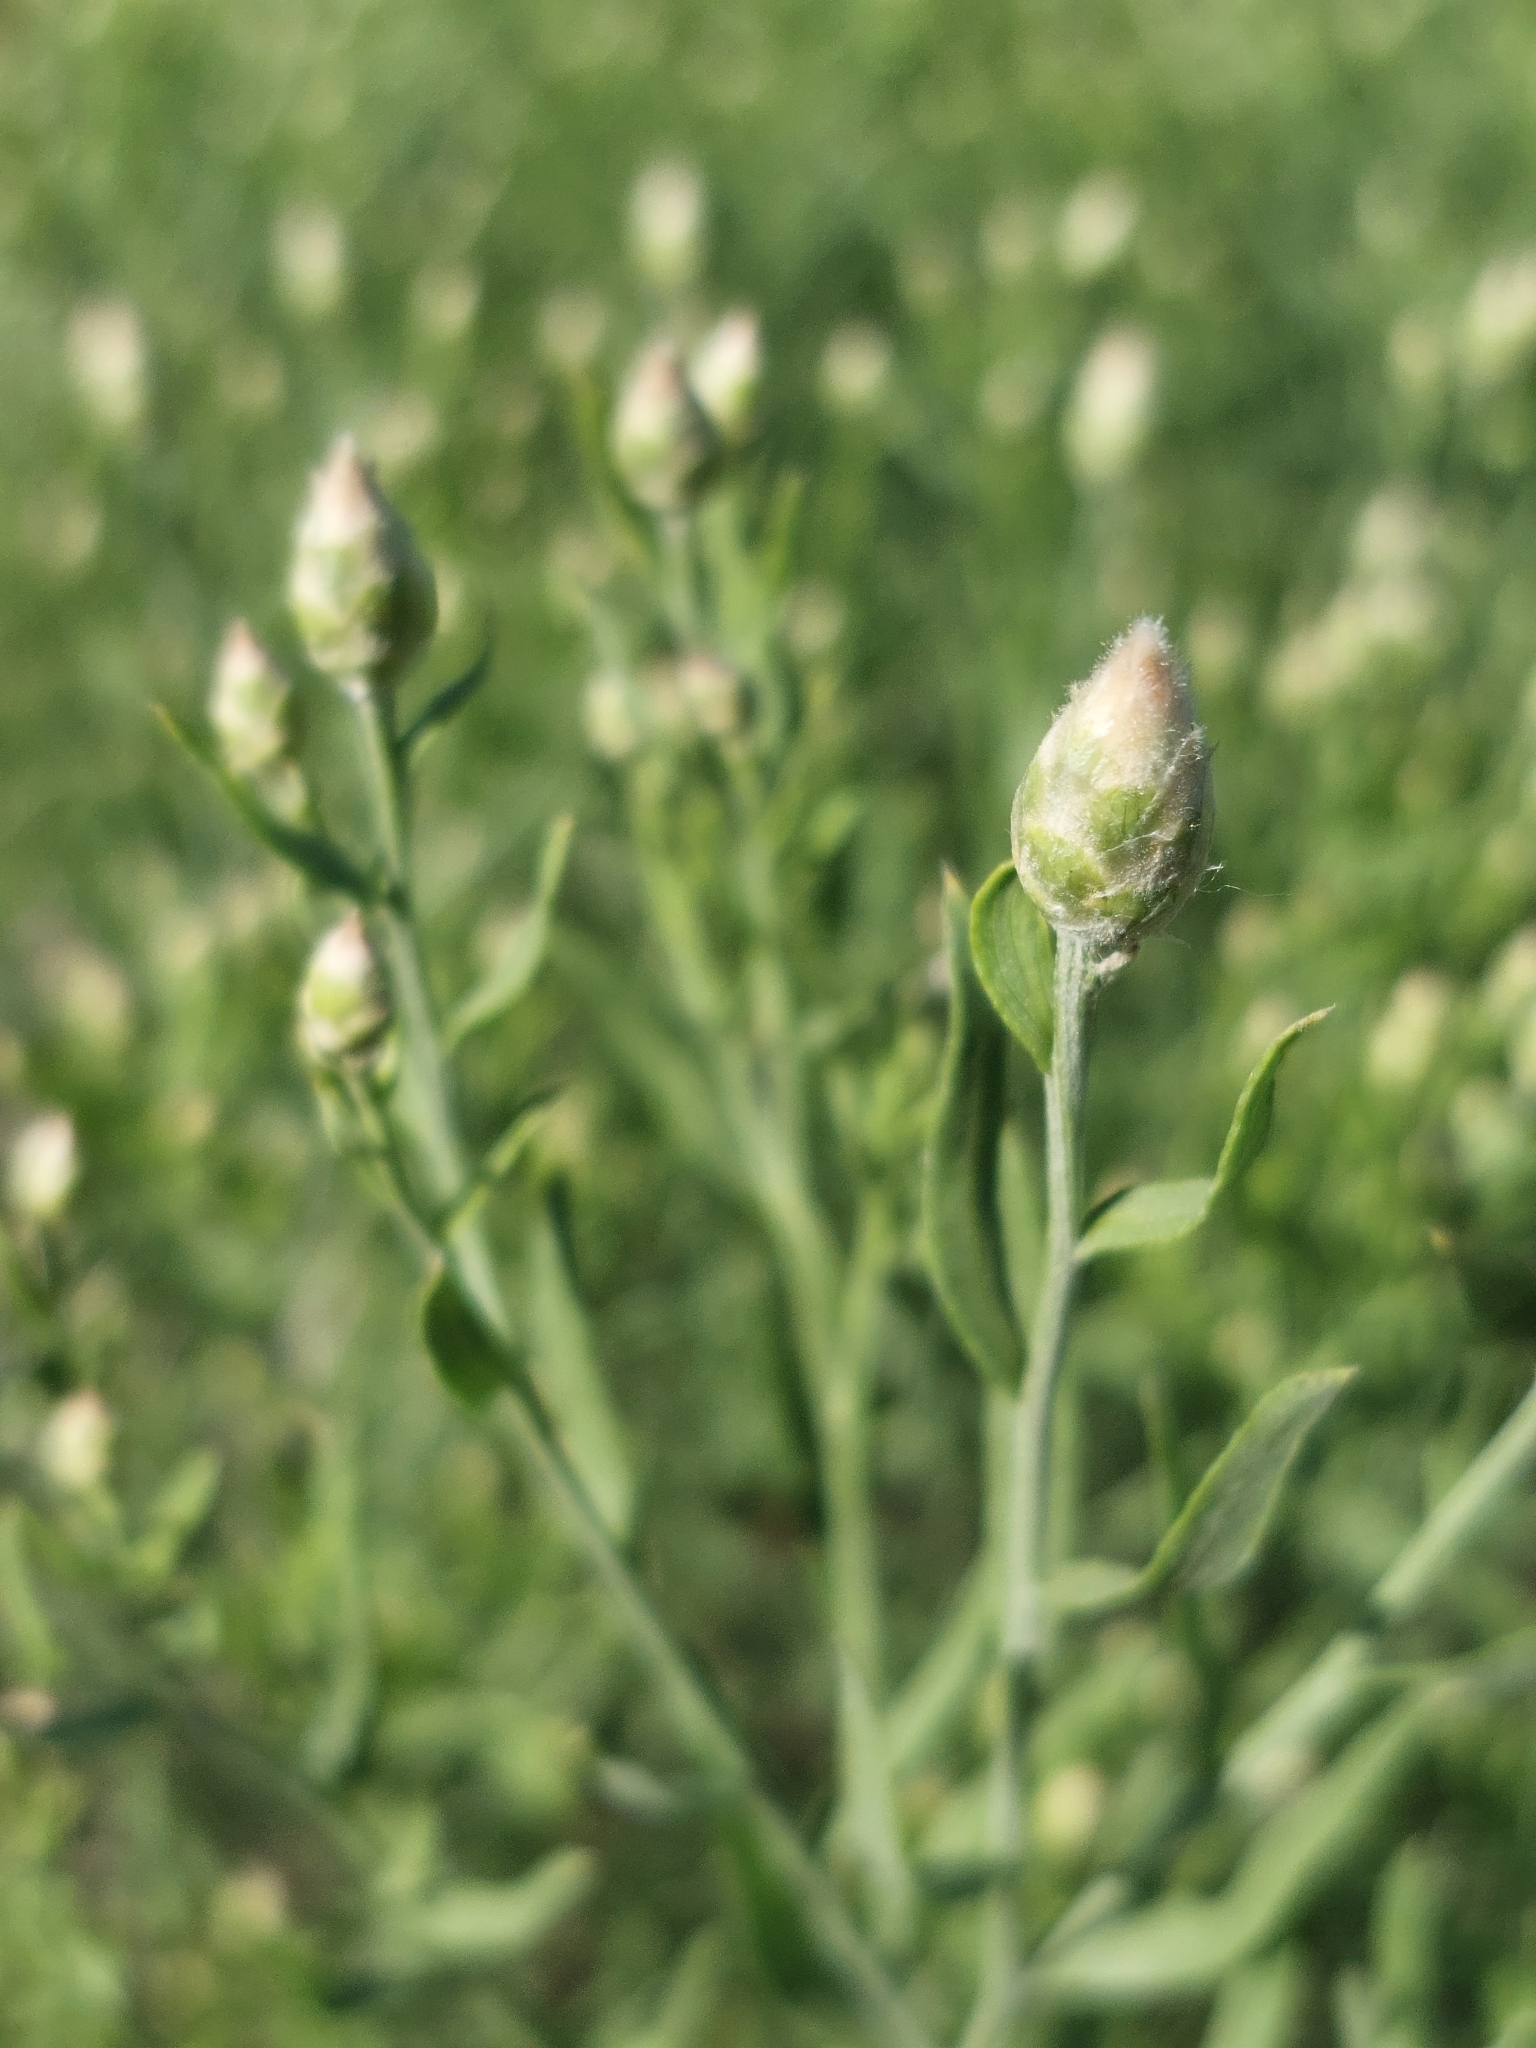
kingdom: Plantae
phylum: Tracheophyta
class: Magnoliopsida
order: Asterales
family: Asteraceae
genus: Leuzea
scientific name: Leuzea repens
